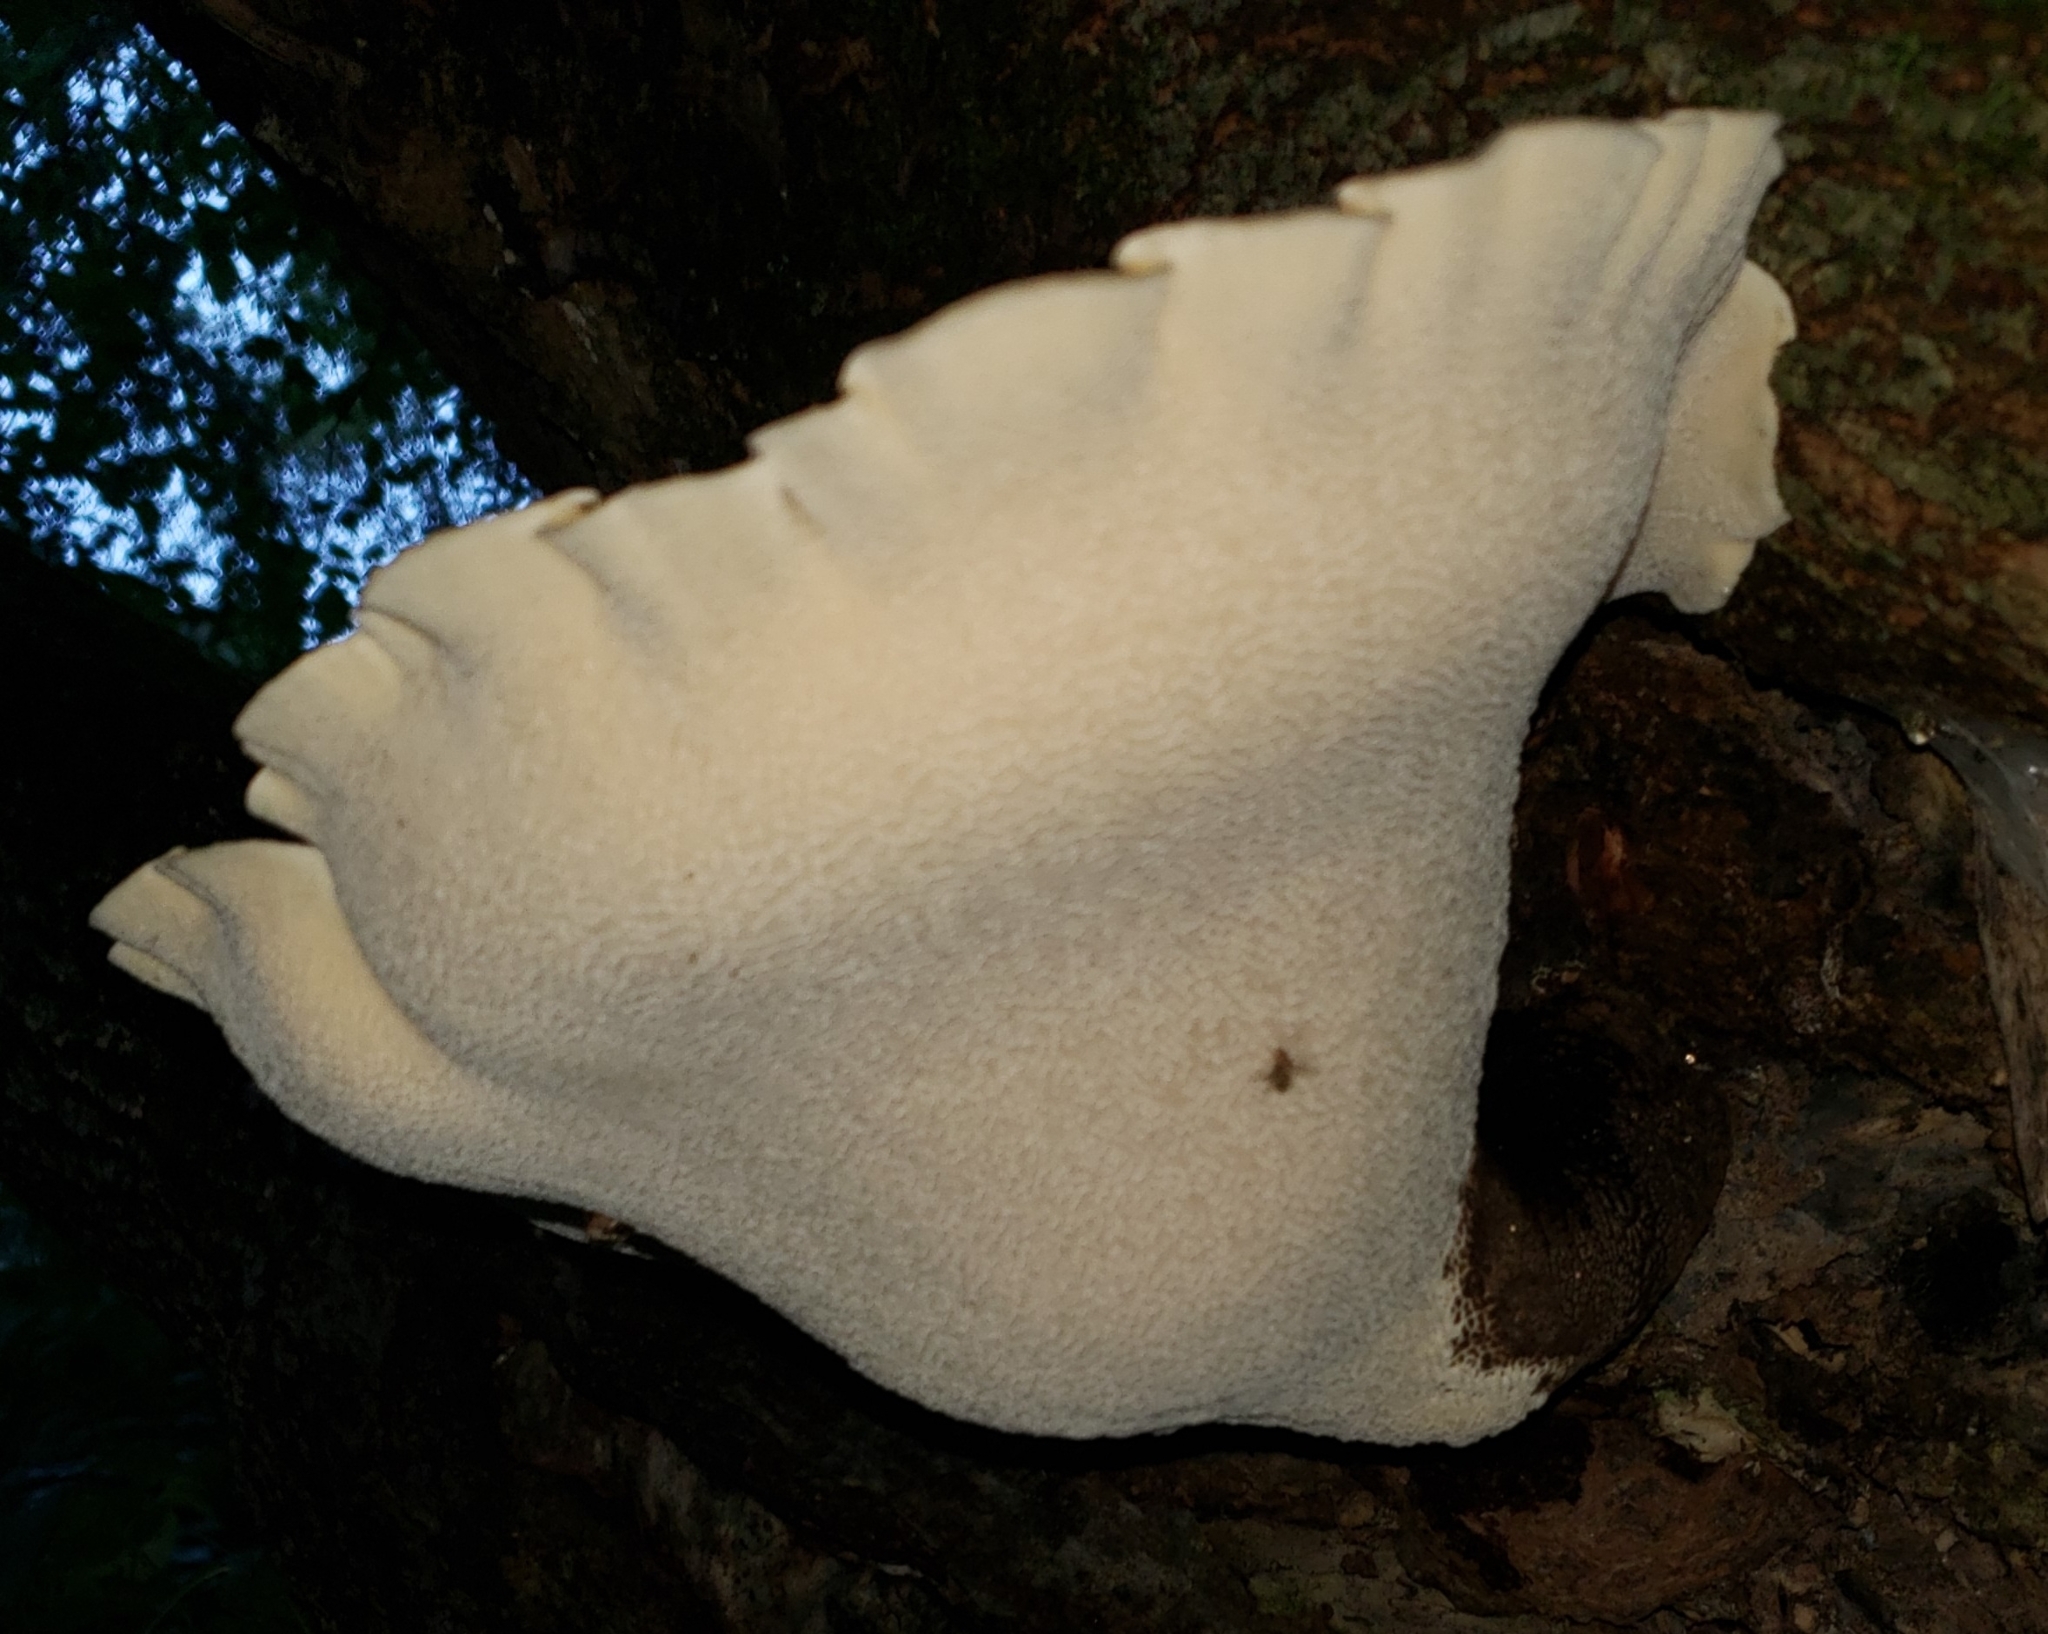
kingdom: Fungi
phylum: Basidiomycota
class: Agaricomycetes
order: Polyporales
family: Polyporaceae
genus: Cerioporus
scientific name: Cerioporus squamosus
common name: Dryad's saddle
